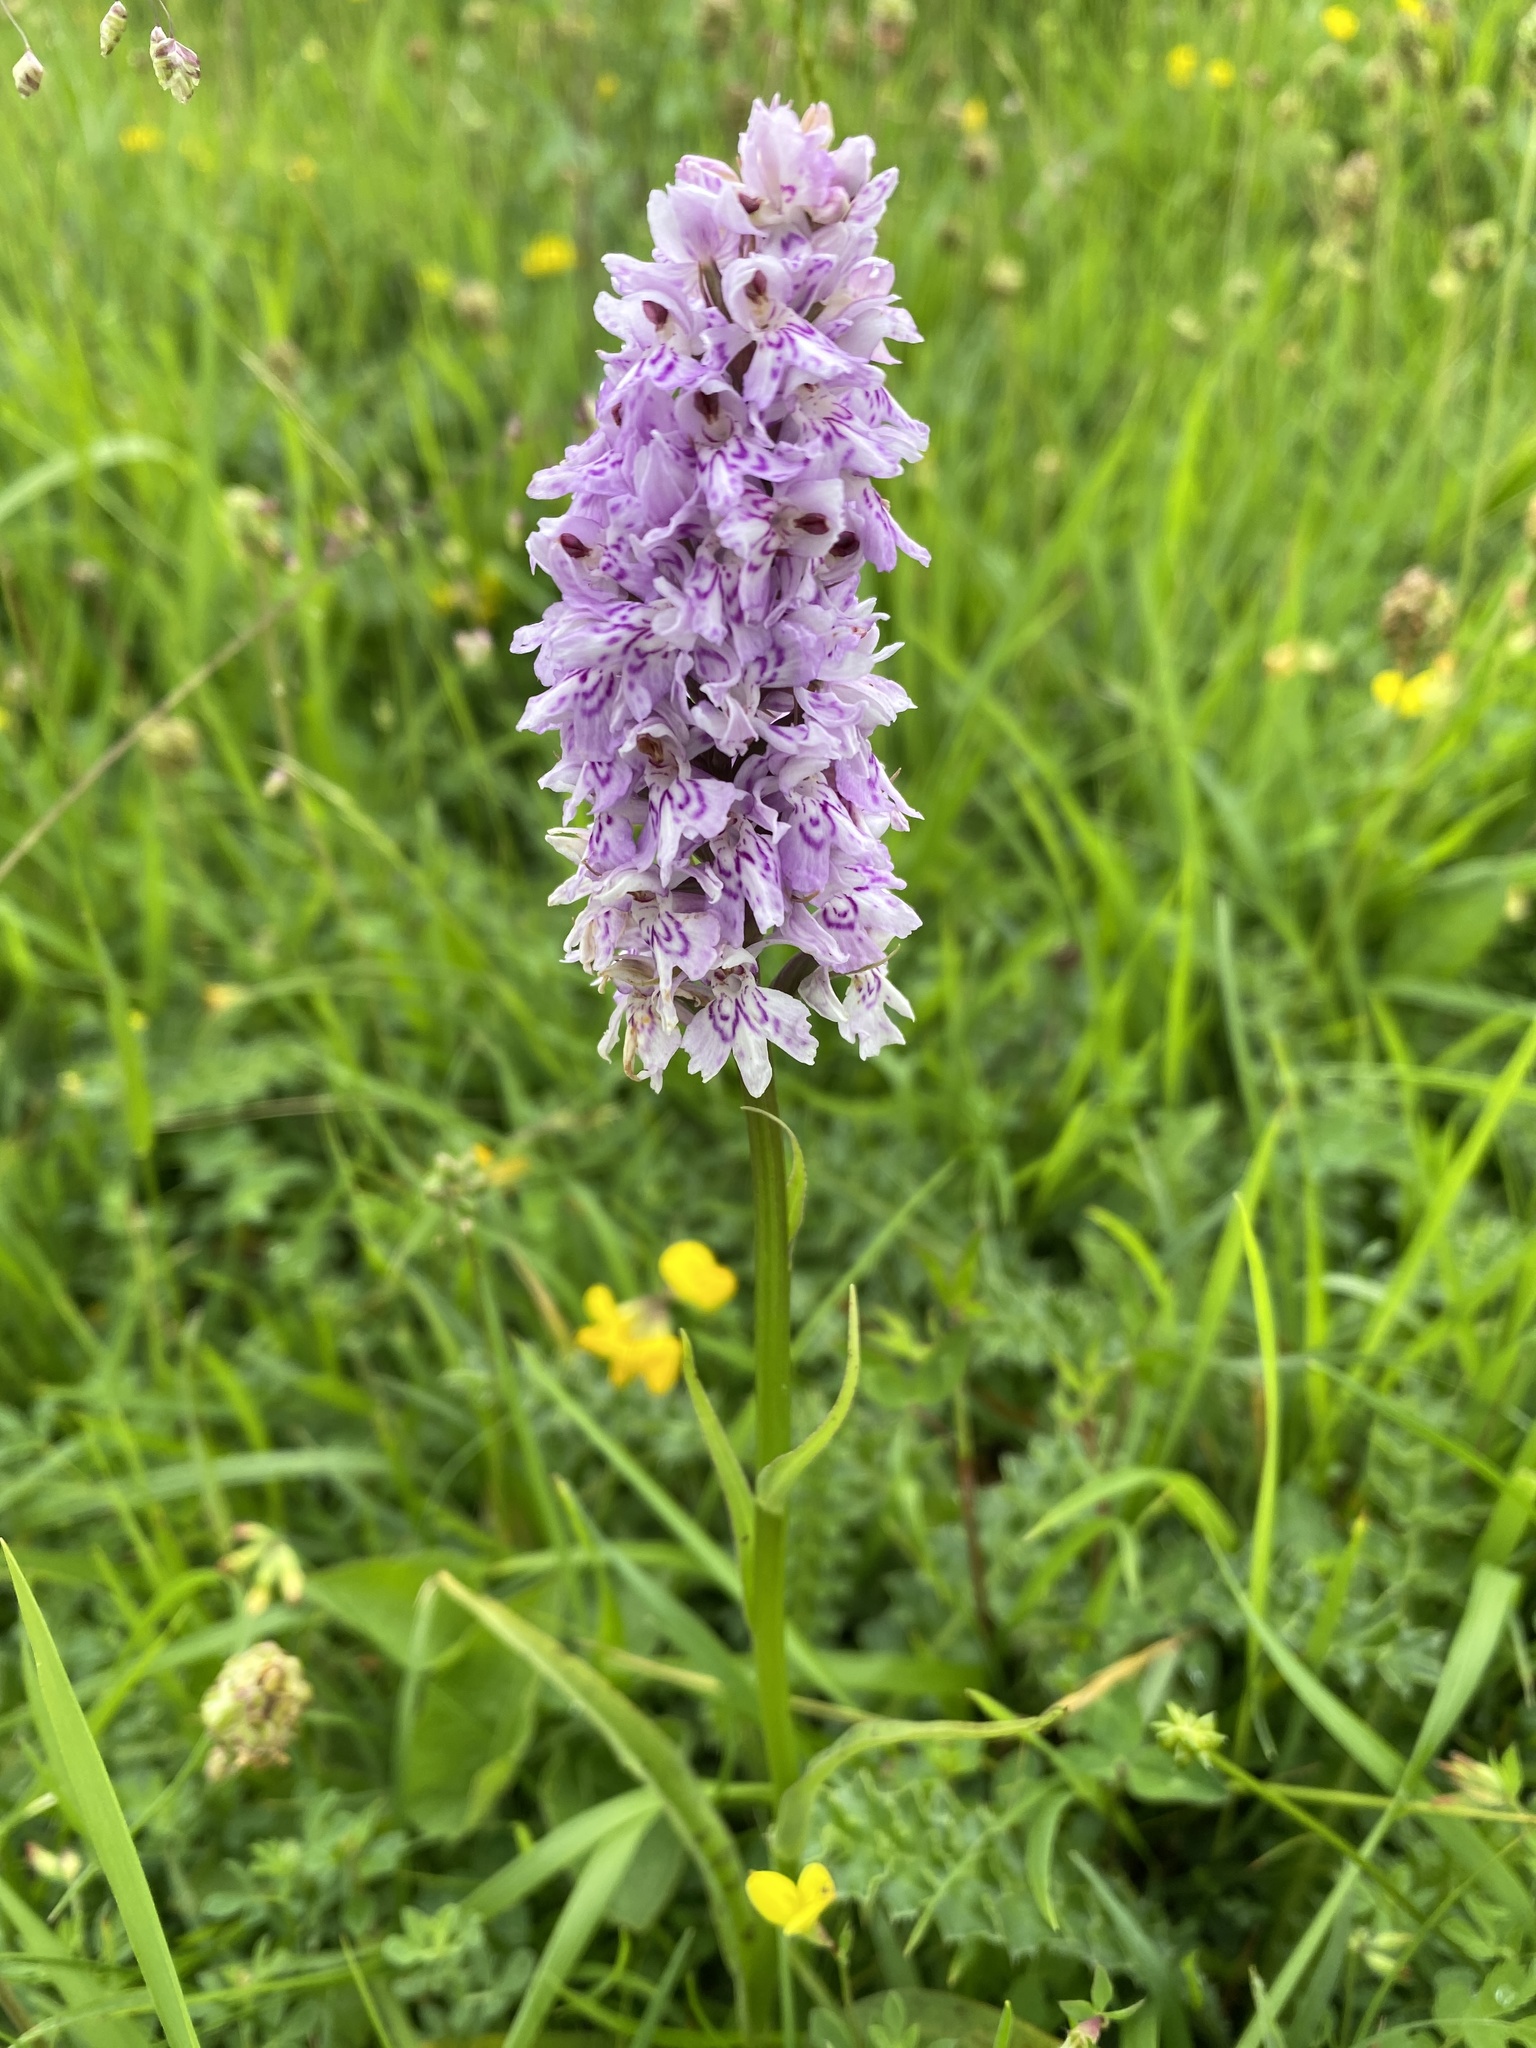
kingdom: Plantae
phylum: Tracheophyta
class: Liliopsida
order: Asparagales
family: Orchidaceae
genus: Dactylorhiza
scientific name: Dactylorhiza maculata
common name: Heath spotted-orchid
